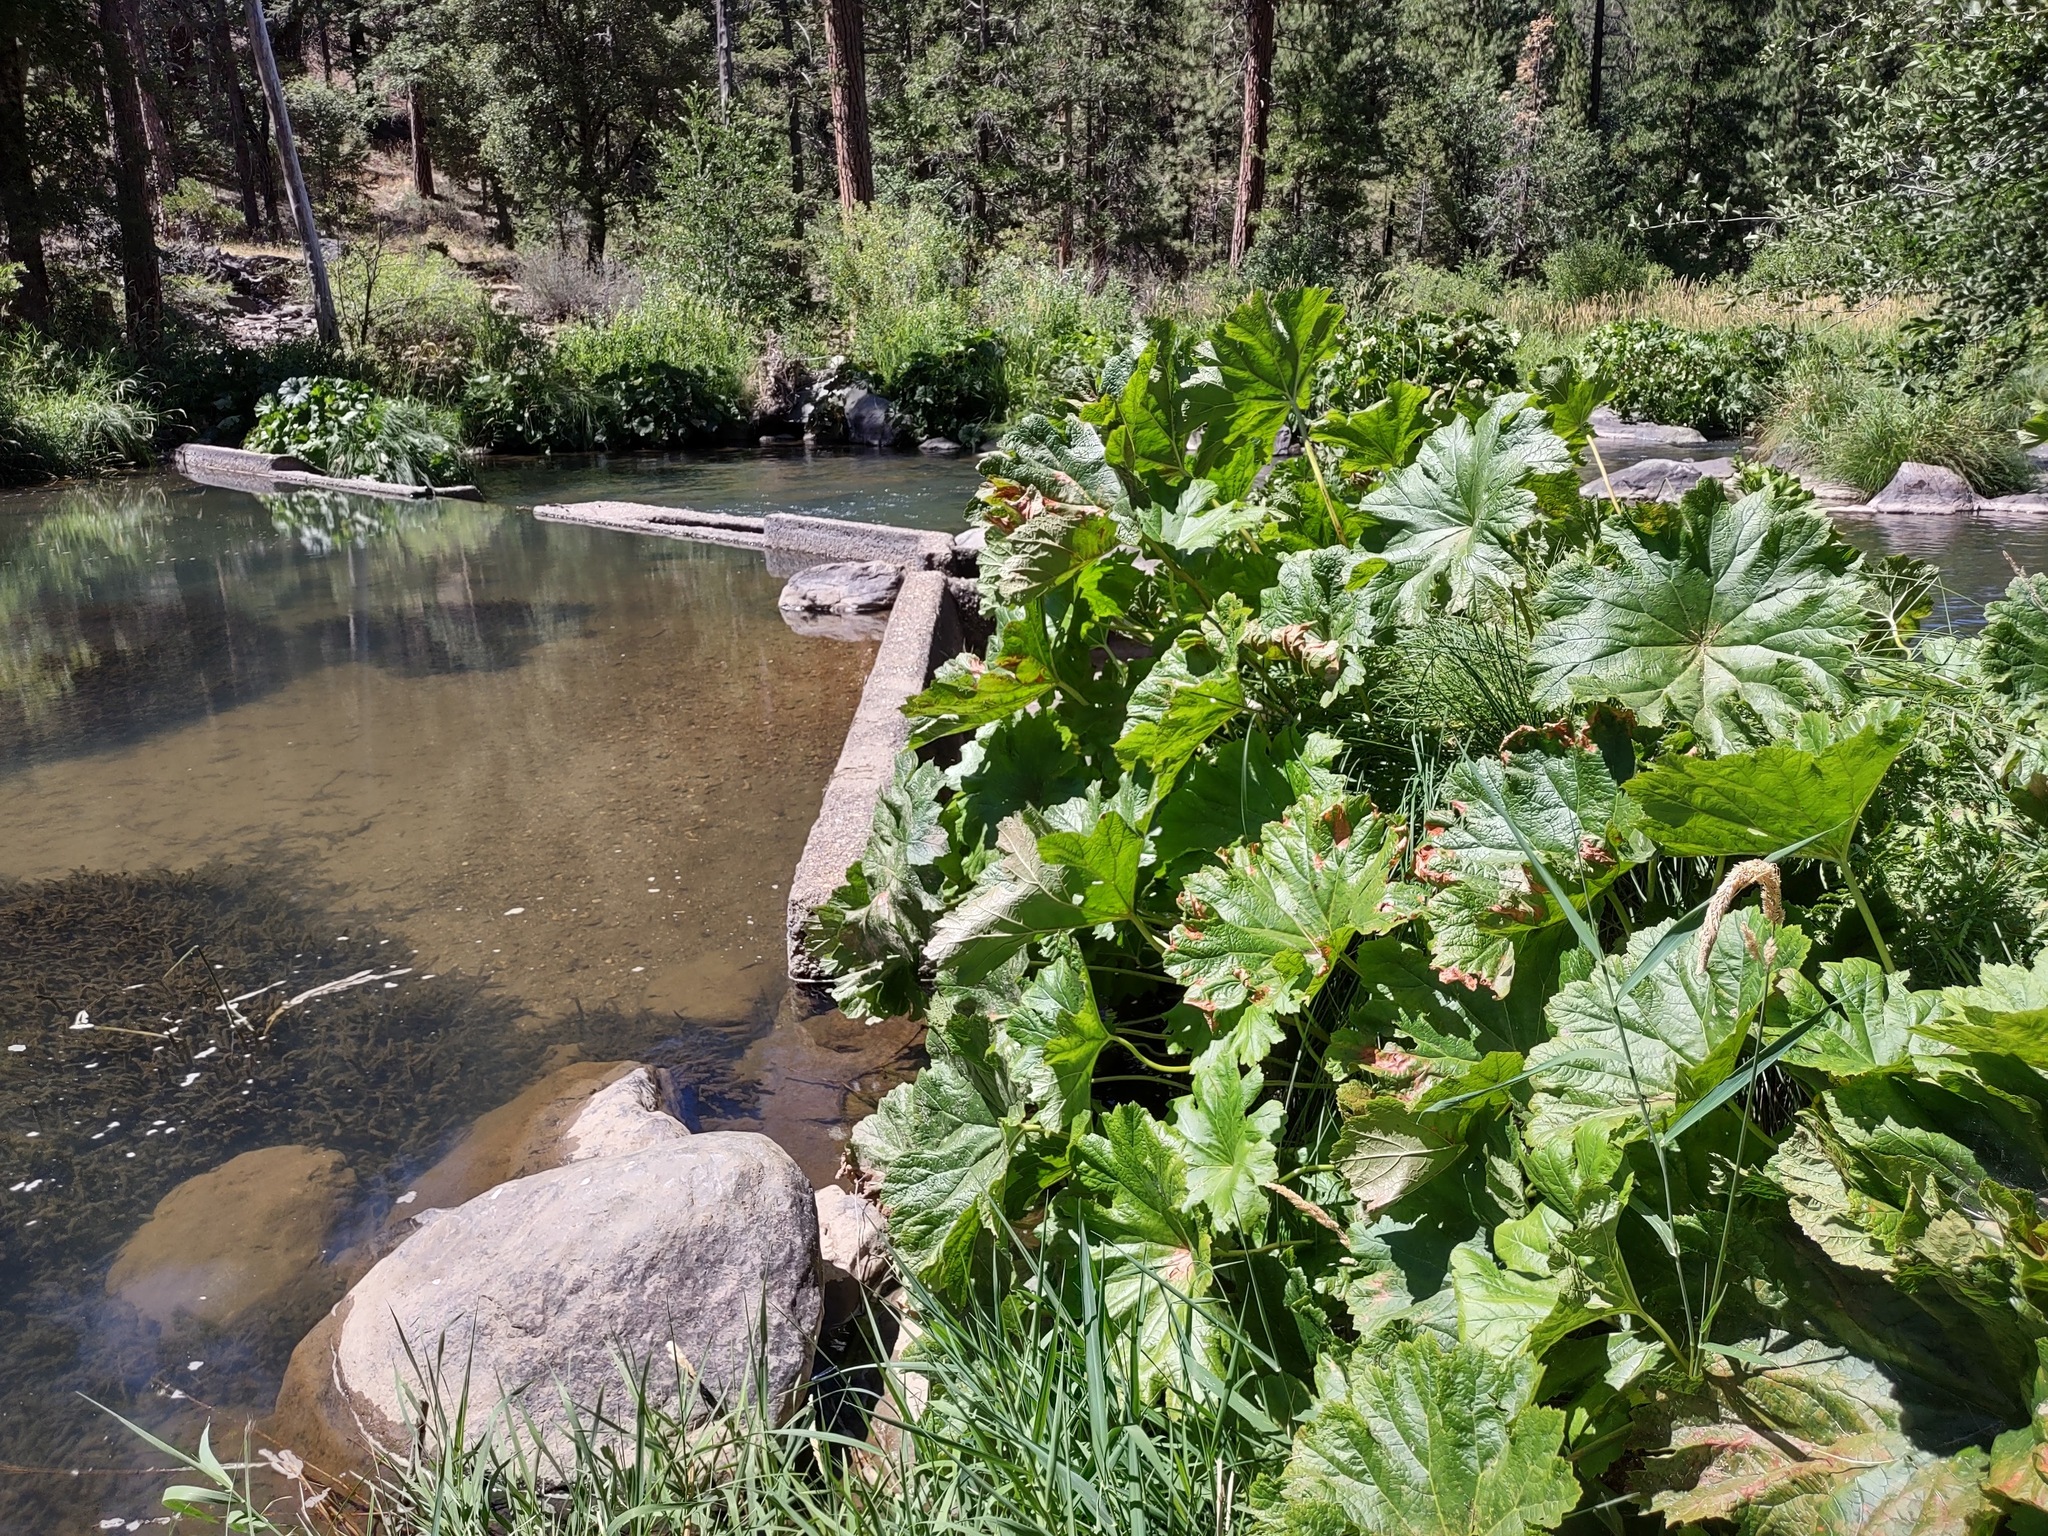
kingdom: Plantae
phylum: Tracheophyta
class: Magnoliopsida
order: Saxifragales
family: Saxifragaceae
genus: Darmera
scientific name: Darmera peltata
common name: Indian-rhubarb
